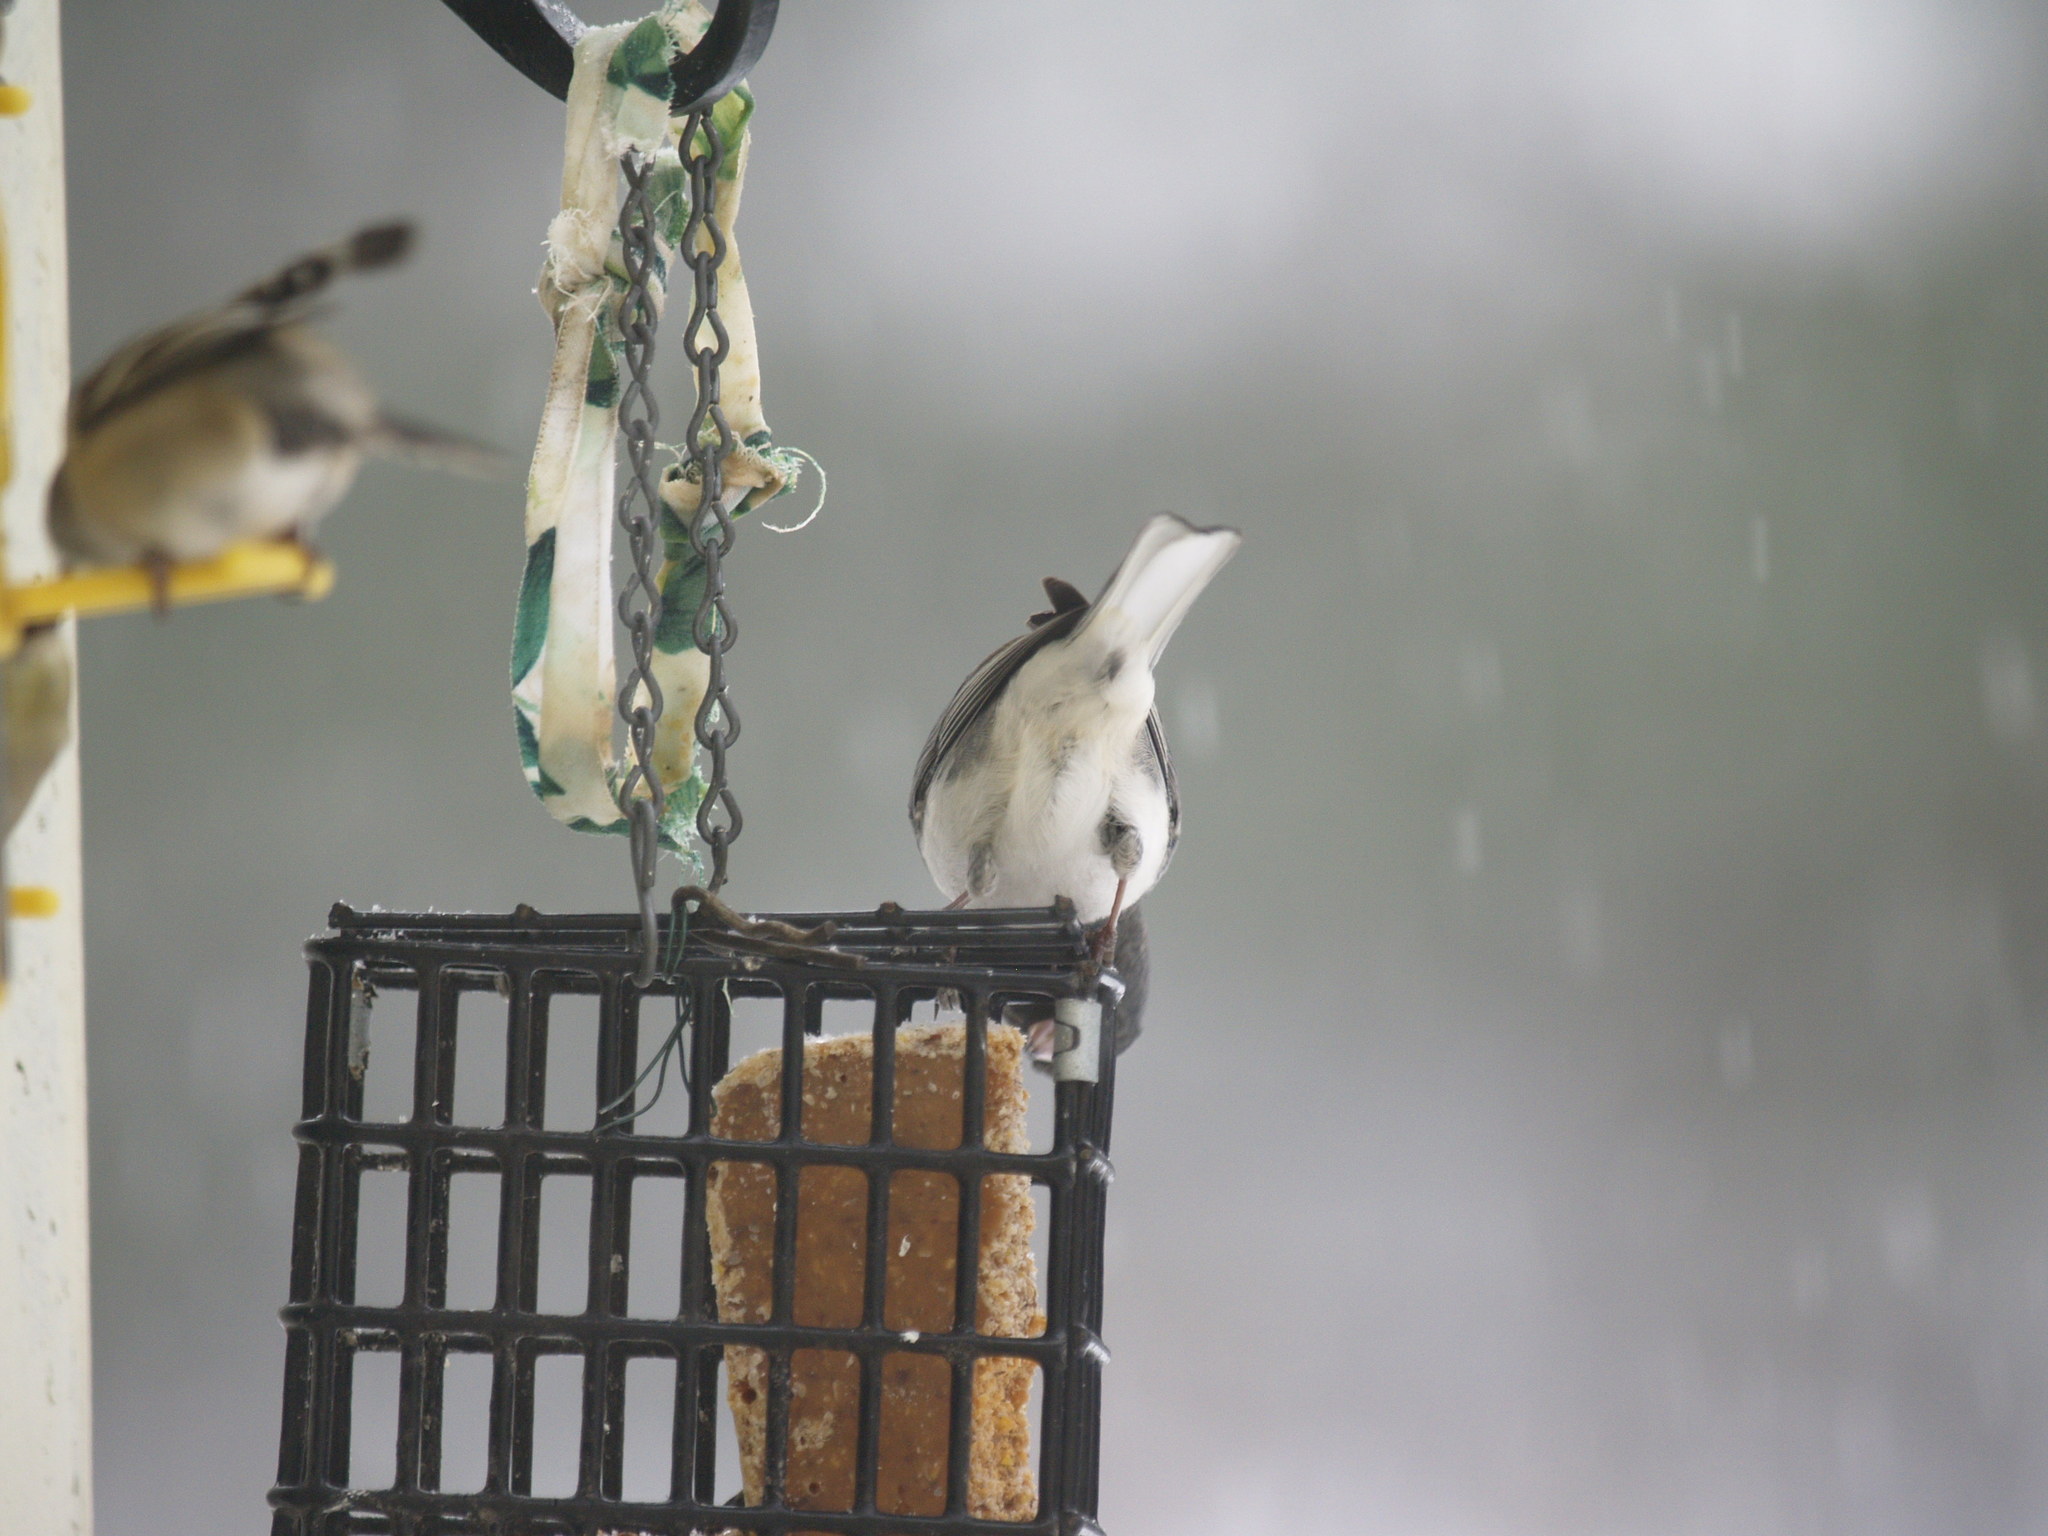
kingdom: Animalia
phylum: Chordata
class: Aves
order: Passeriformes
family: Passerellidae
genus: Junco
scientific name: Junco hyemalis
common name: Dark-eyed junco
